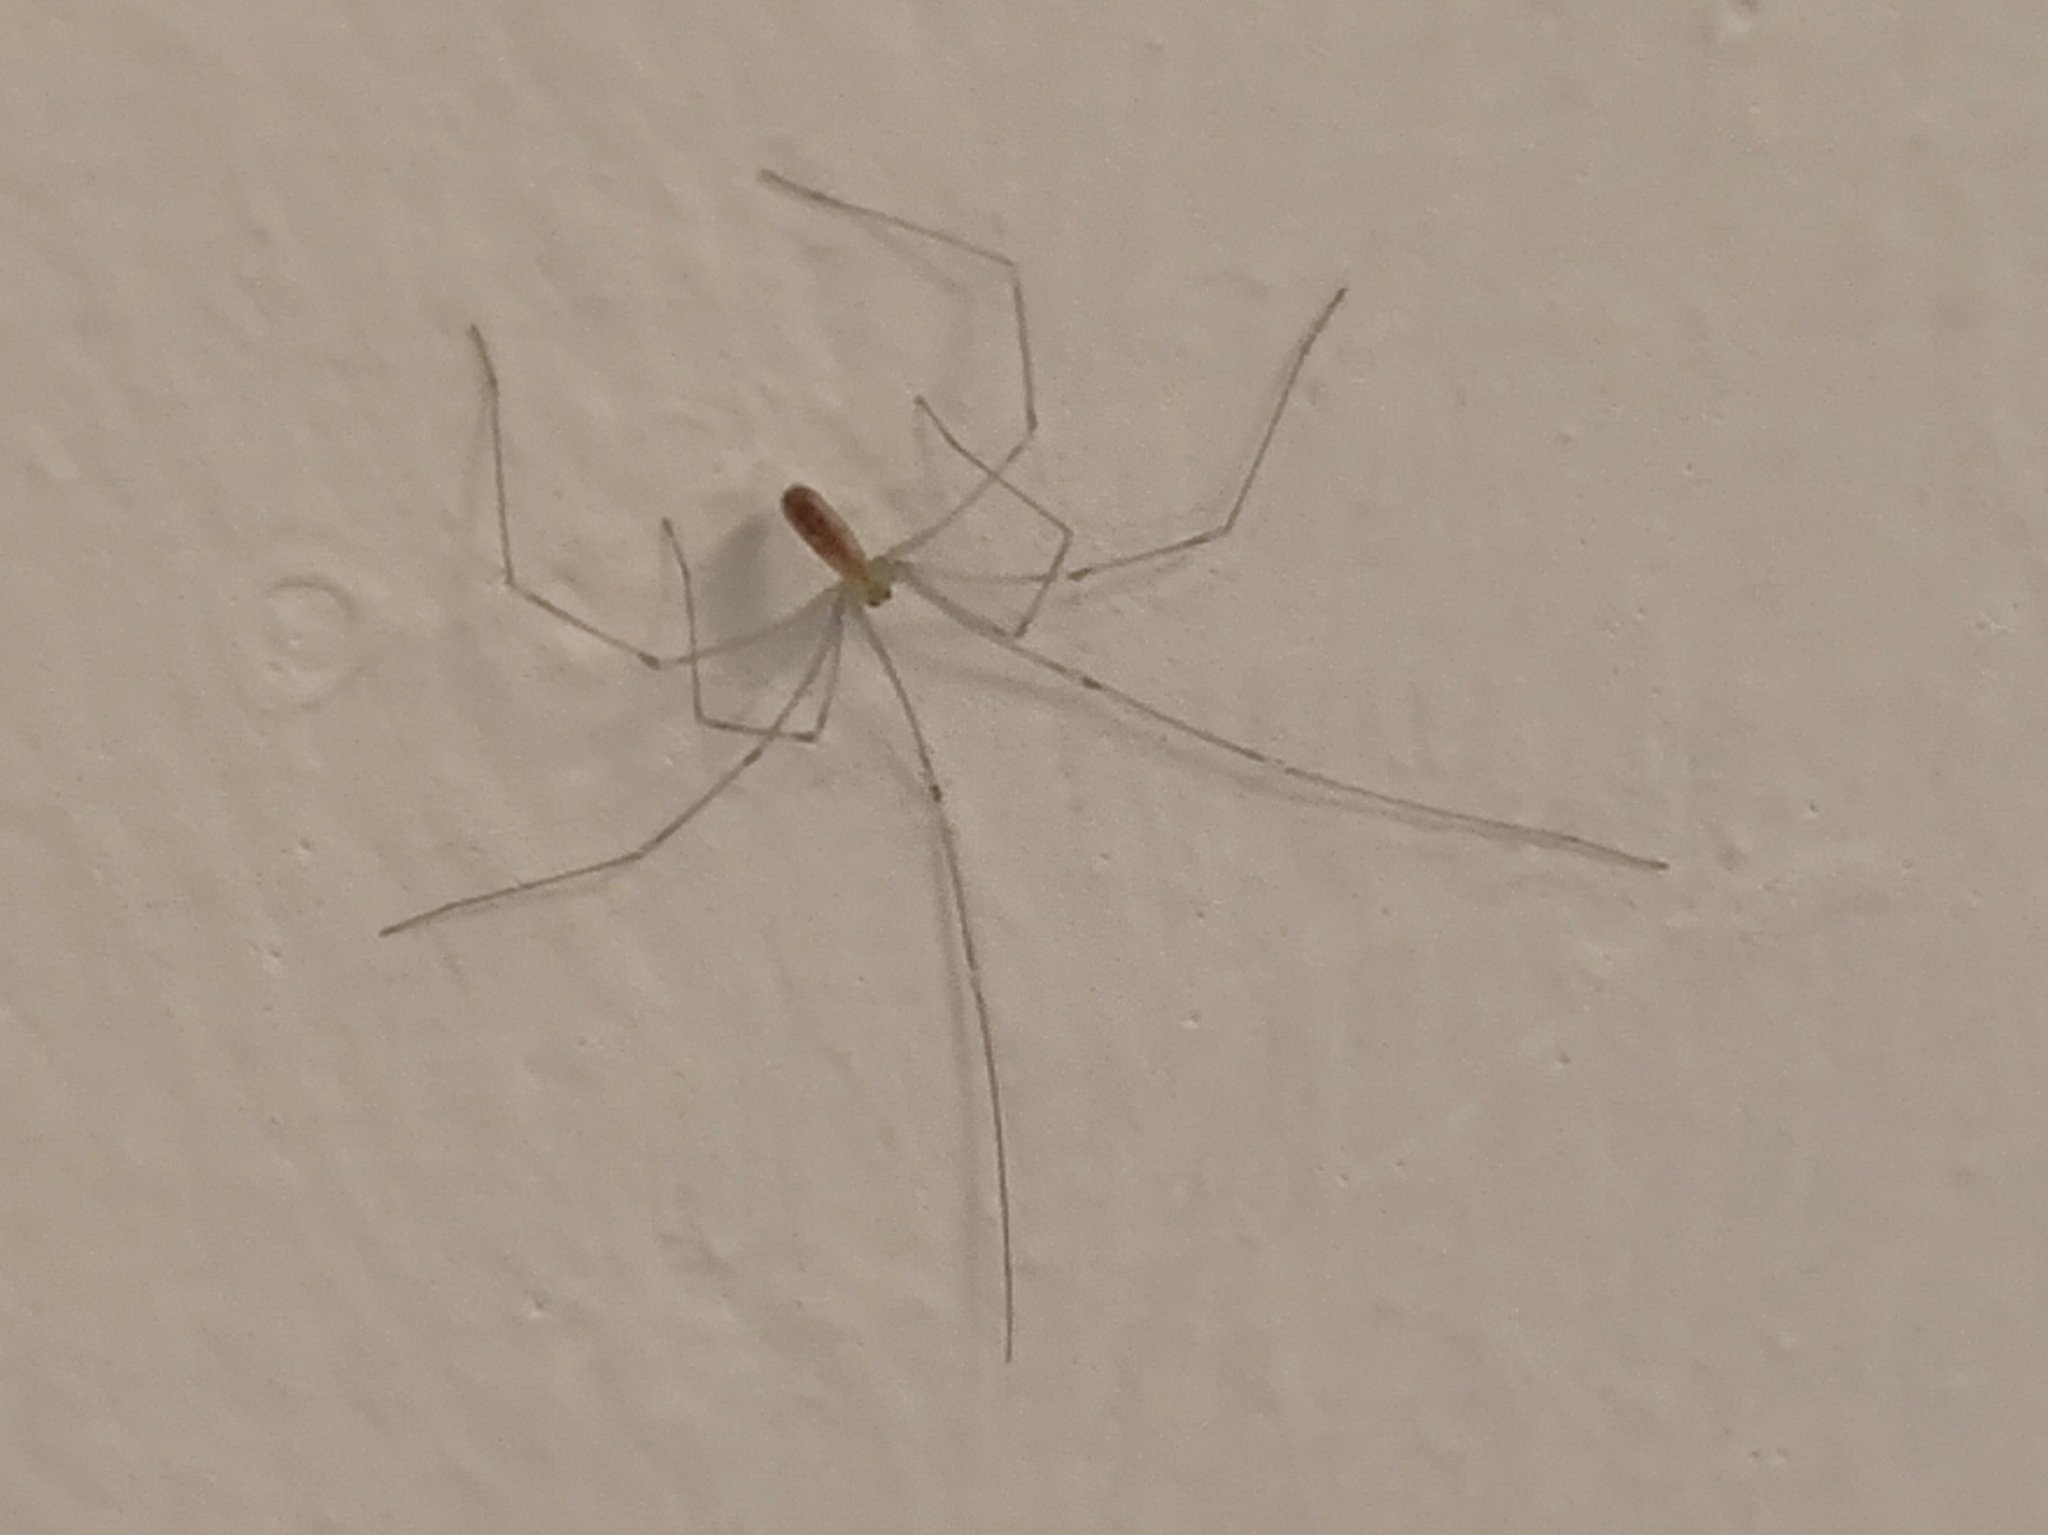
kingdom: Animalia
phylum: Arthropoda
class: Arachnida
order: Araneae
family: Pholcidae
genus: Pholcus
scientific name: Pholcus phalangioides
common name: Longbodied cellar spider
